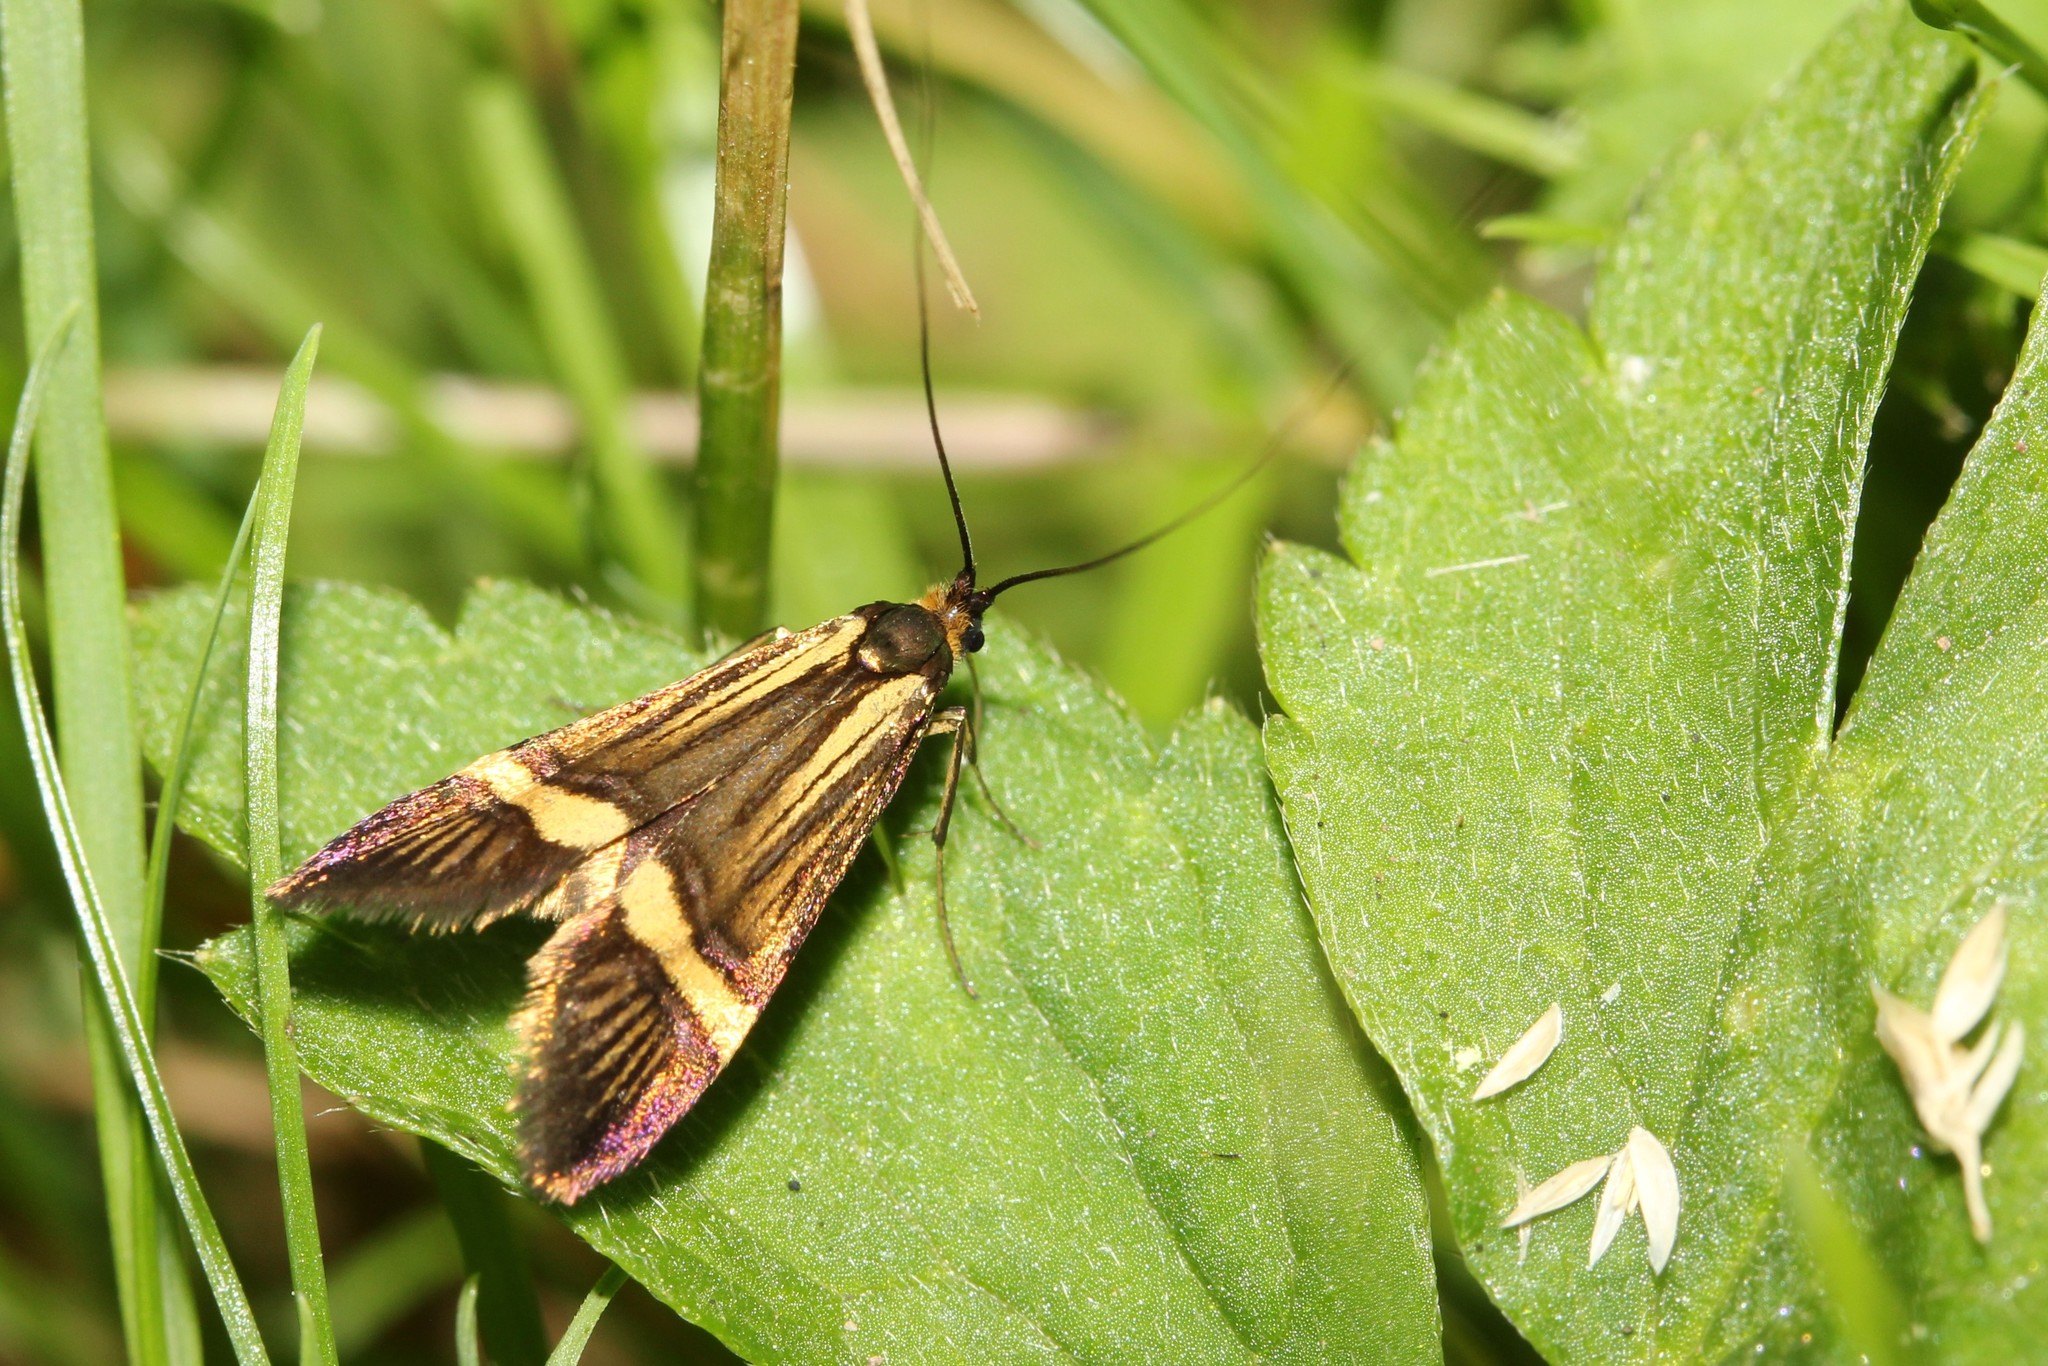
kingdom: Animalia
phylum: Arthropoda
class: Insecta
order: Lepidoptera
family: Adelidae
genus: Nemophora
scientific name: Nemophora degeerella
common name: Yellow-barred long-horn
